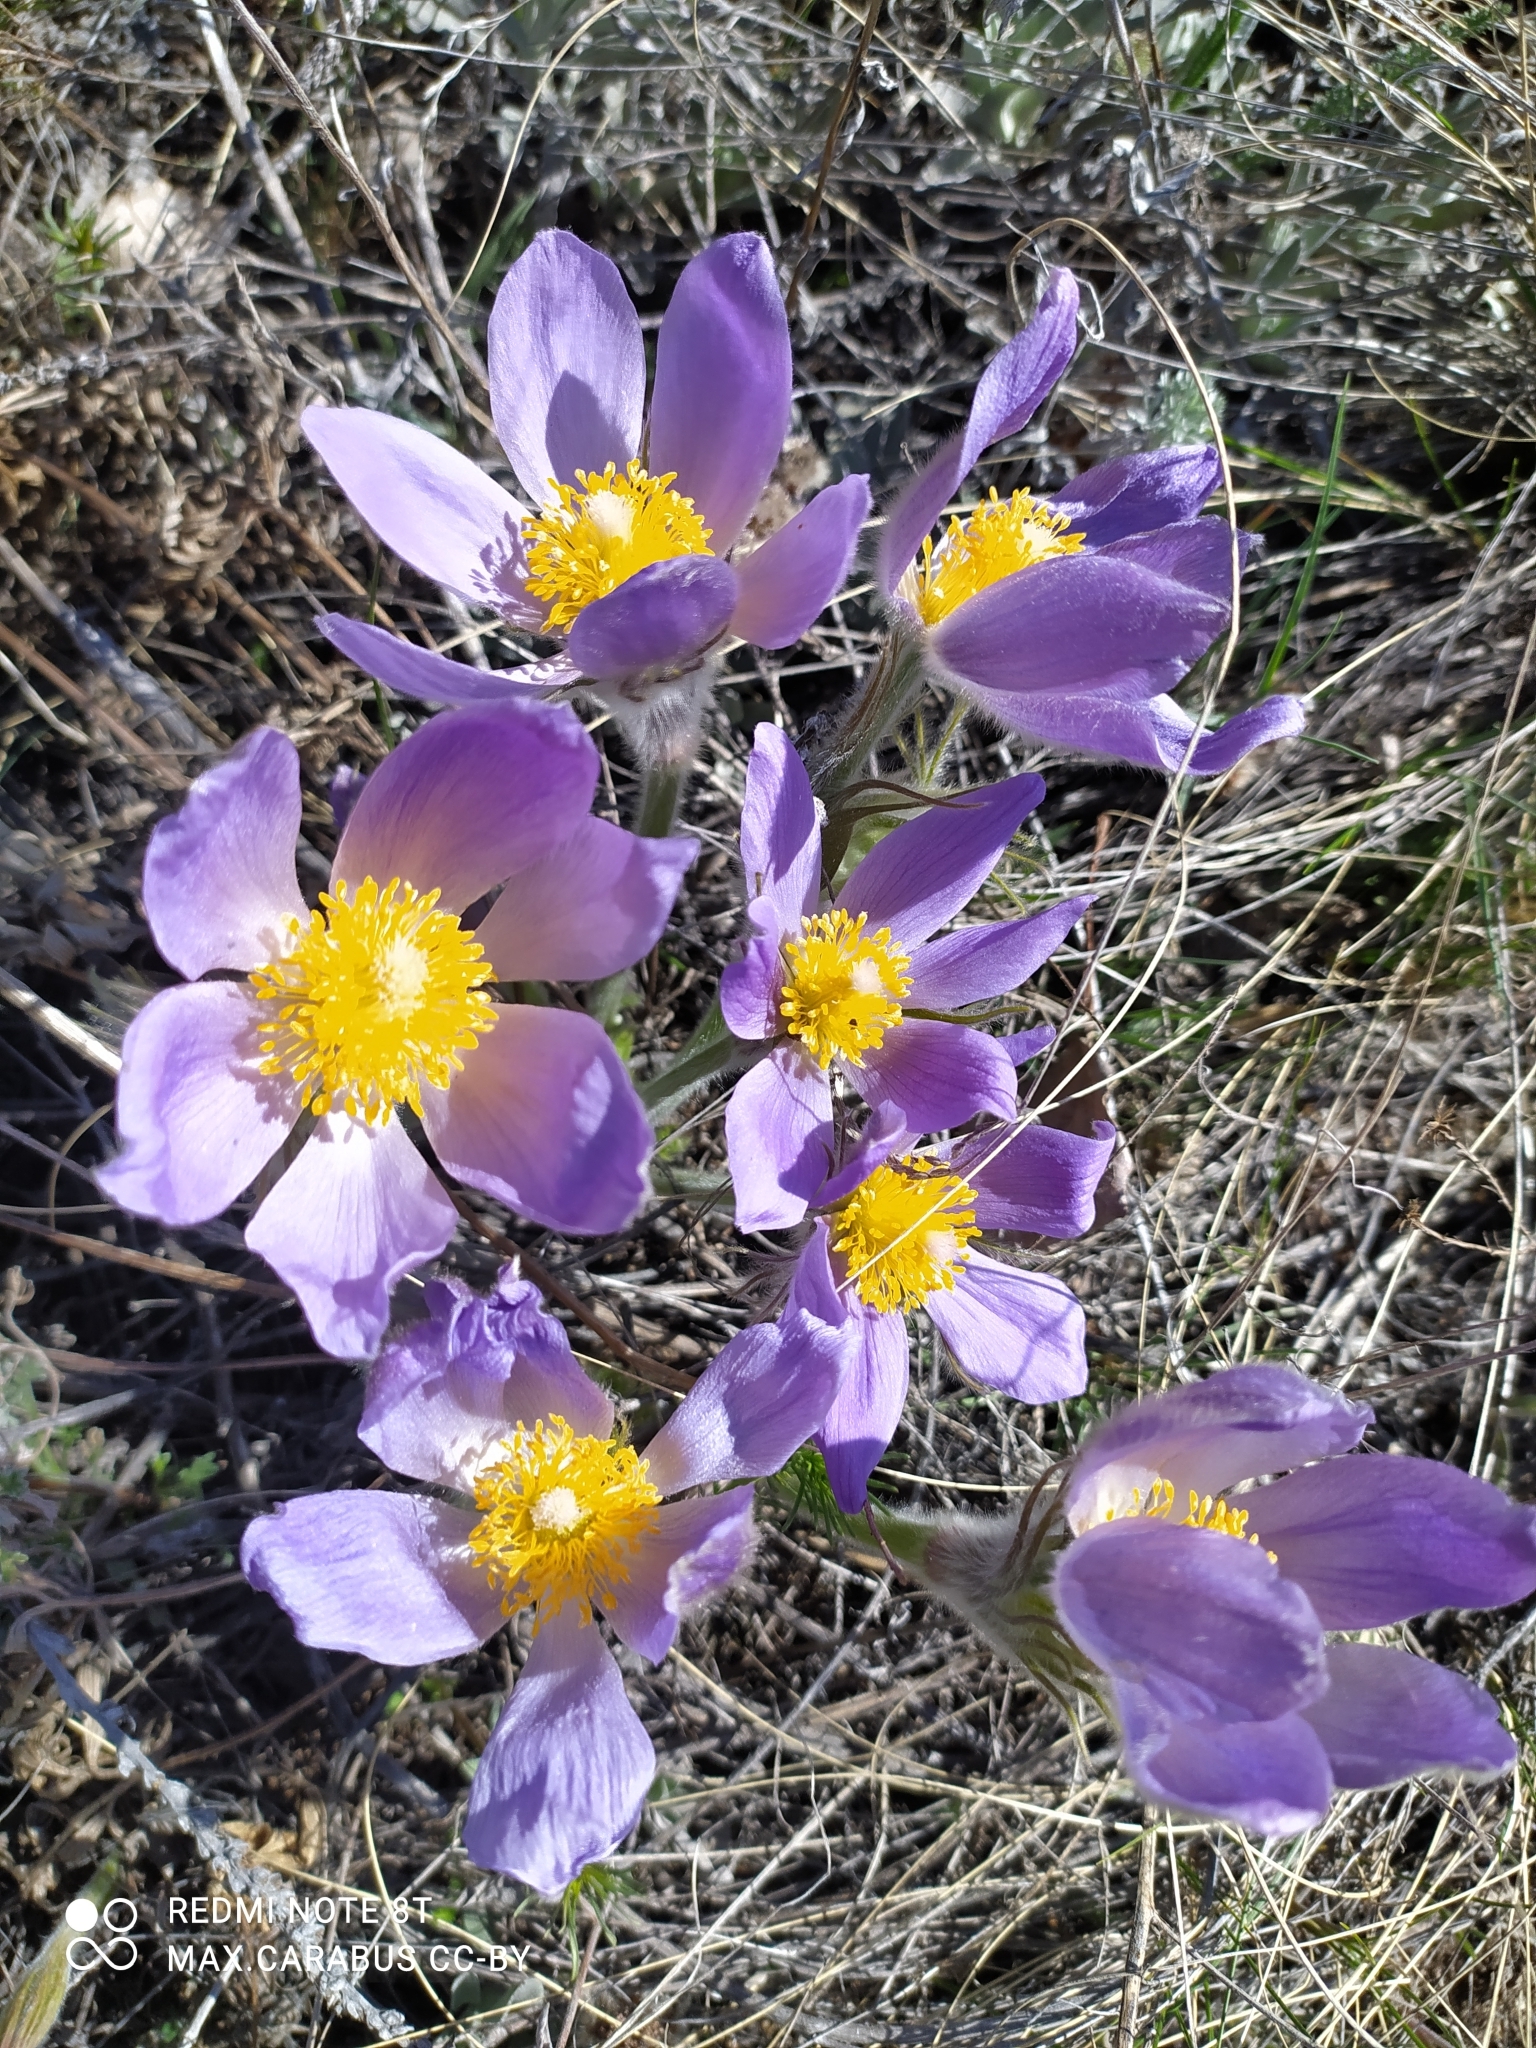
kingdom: Plantae
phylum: Tracheophyta
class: Magnoliopsida
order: Ranunculales
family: Ranunculaceae
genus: Pulsatilla
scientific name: Pulsatilla patens
